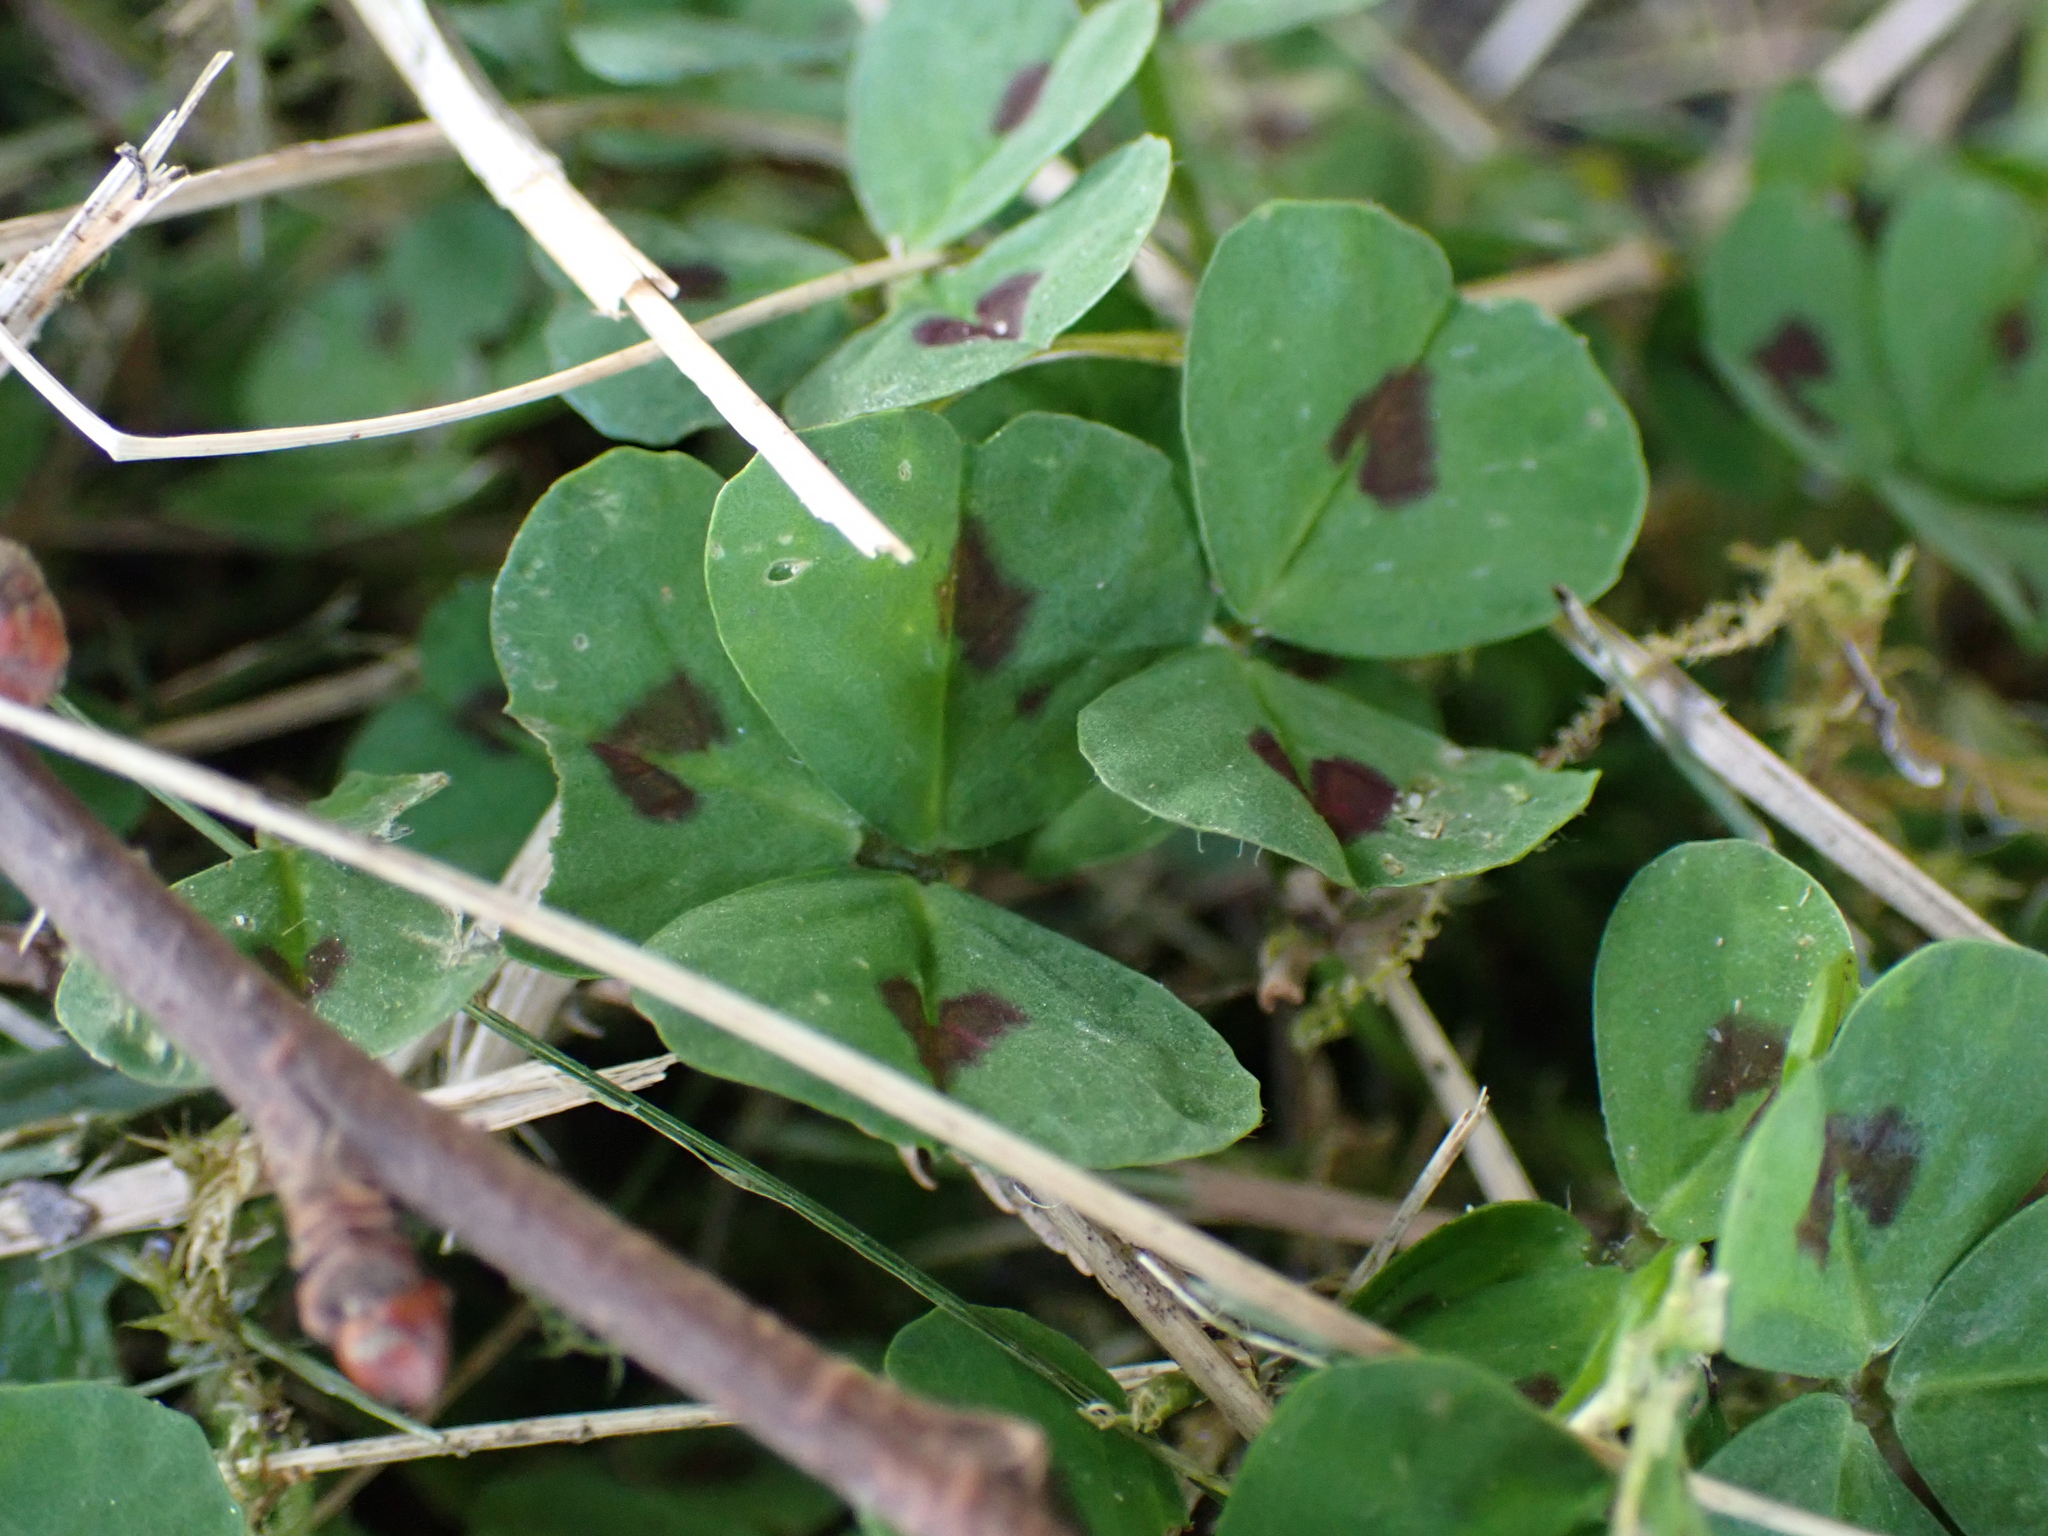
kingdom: Plantae
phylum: Tracheophyta
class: Magnoliopsida
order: Fabales
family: Fabaceae
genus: Medicago
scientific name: Medicago arabica
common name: Spotted medick
